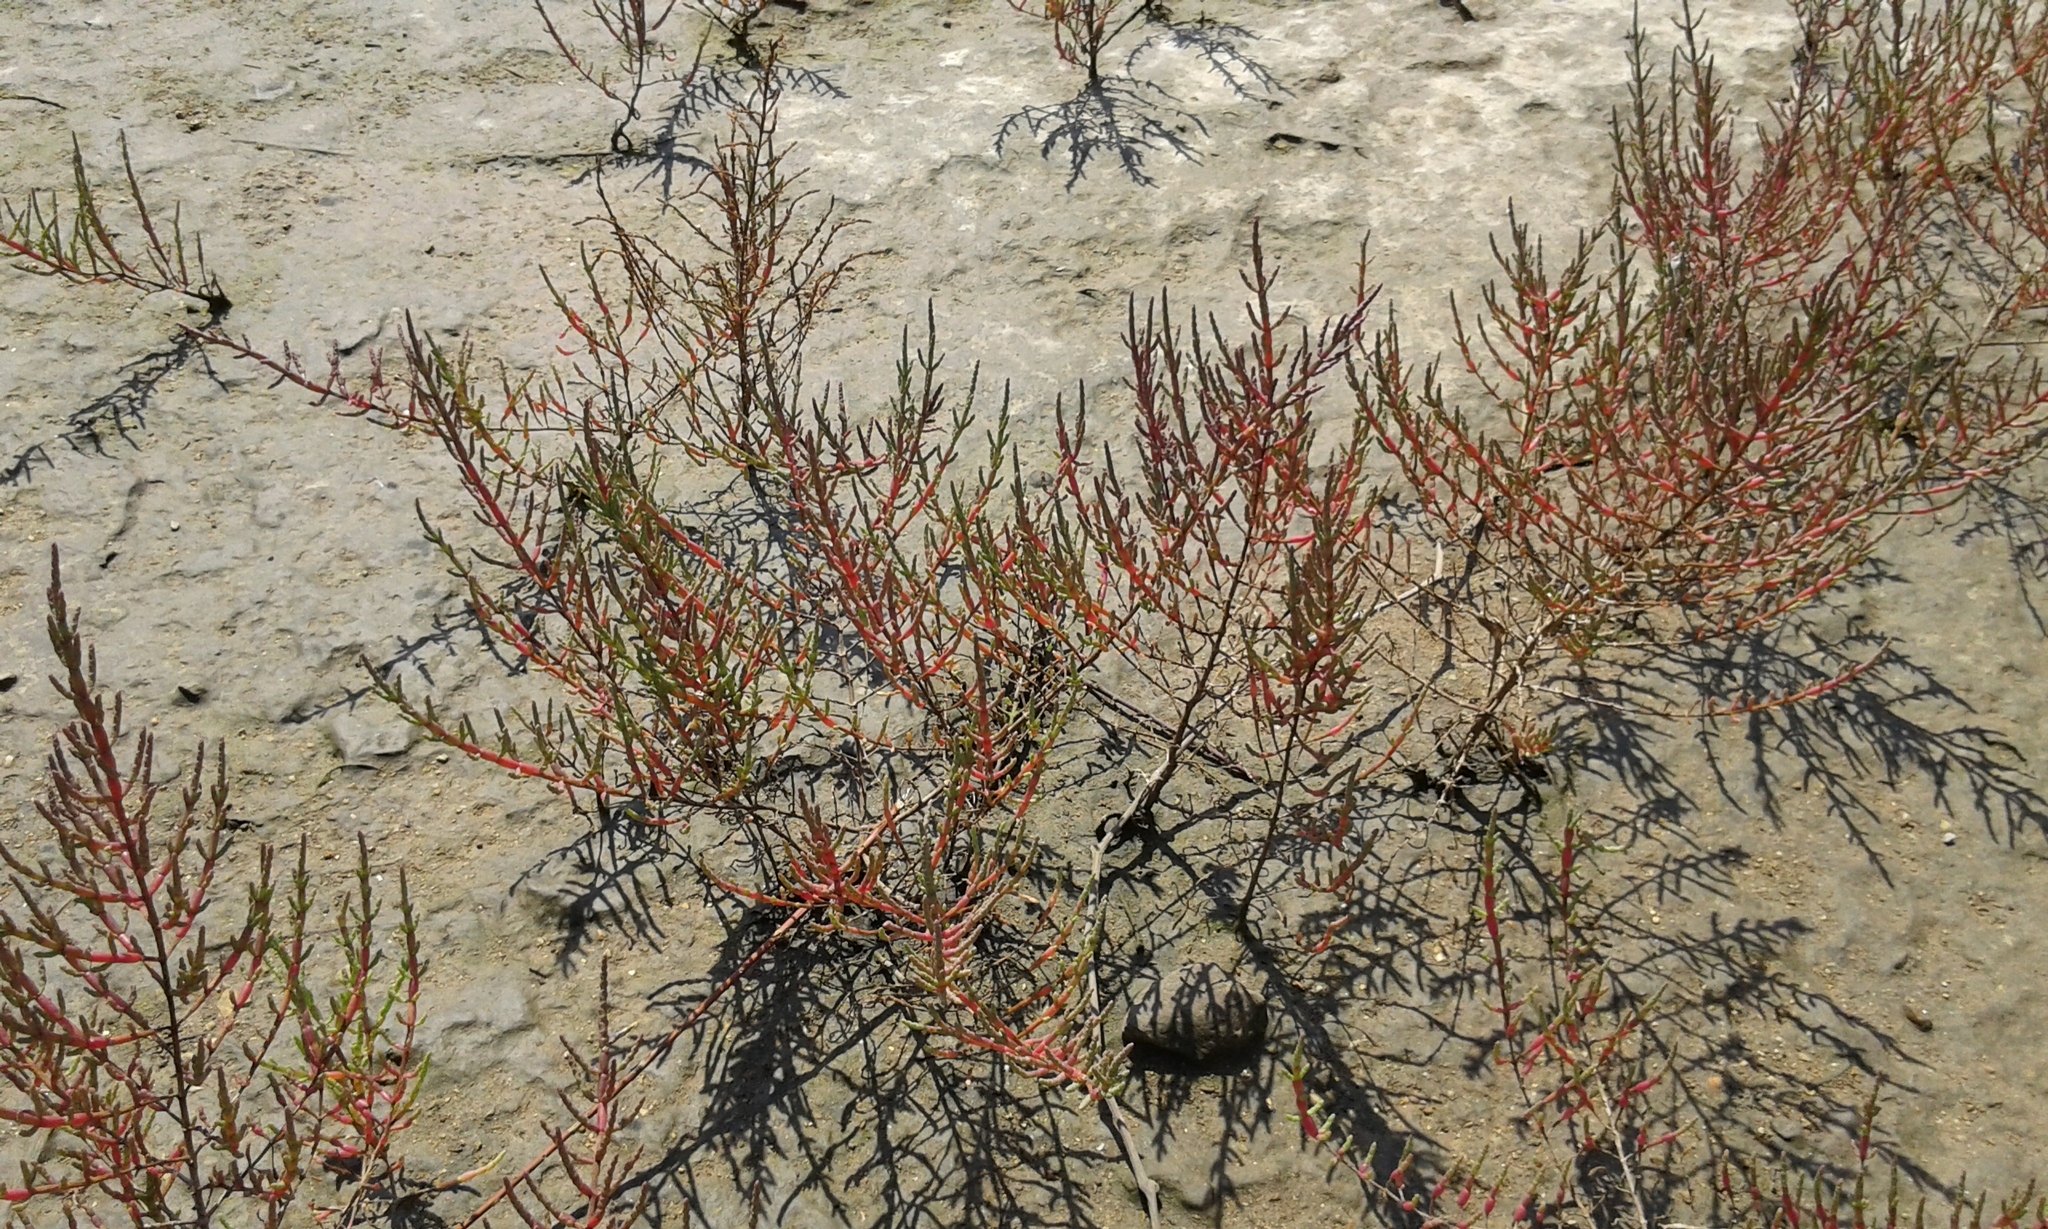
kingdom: Plantae
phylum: Tracheophyta
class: Magnoliopsida
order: Caryophyllales
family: Amaranthaceae
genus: Salicornia
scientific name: Salicornia perennans
